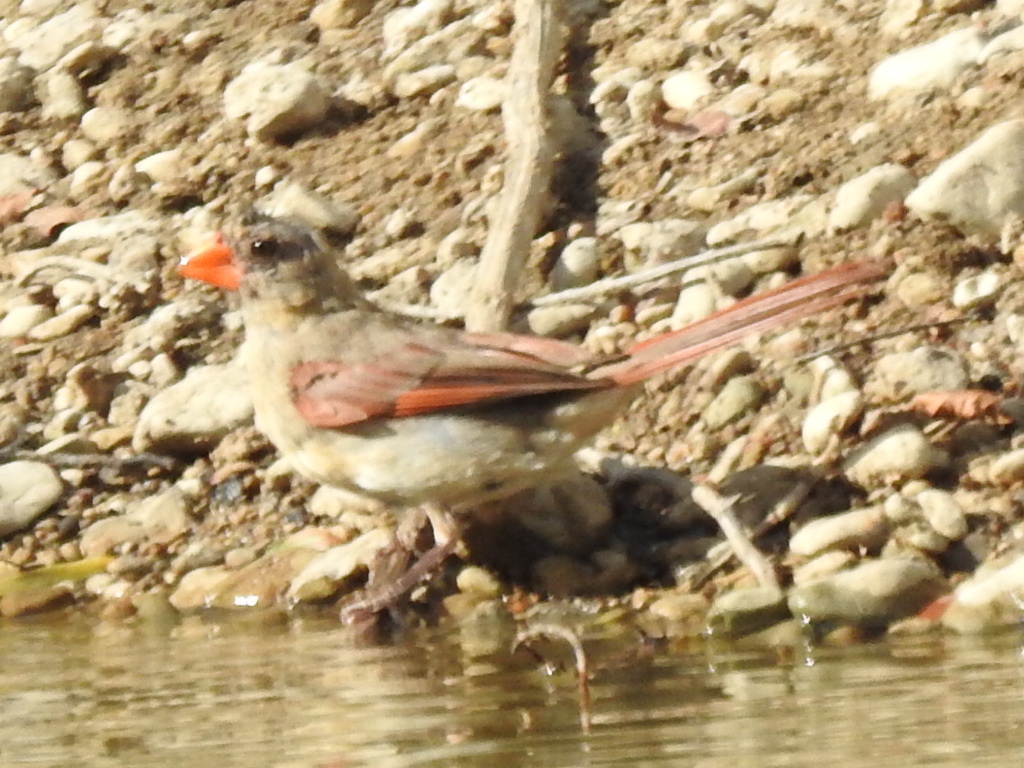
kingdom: Animalia
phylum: Chordata
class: Aves
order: Passeriformes
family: Cardinalidae
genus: Cardinalis
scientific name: Cardinalis cardinalis
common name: Northern cardinal
